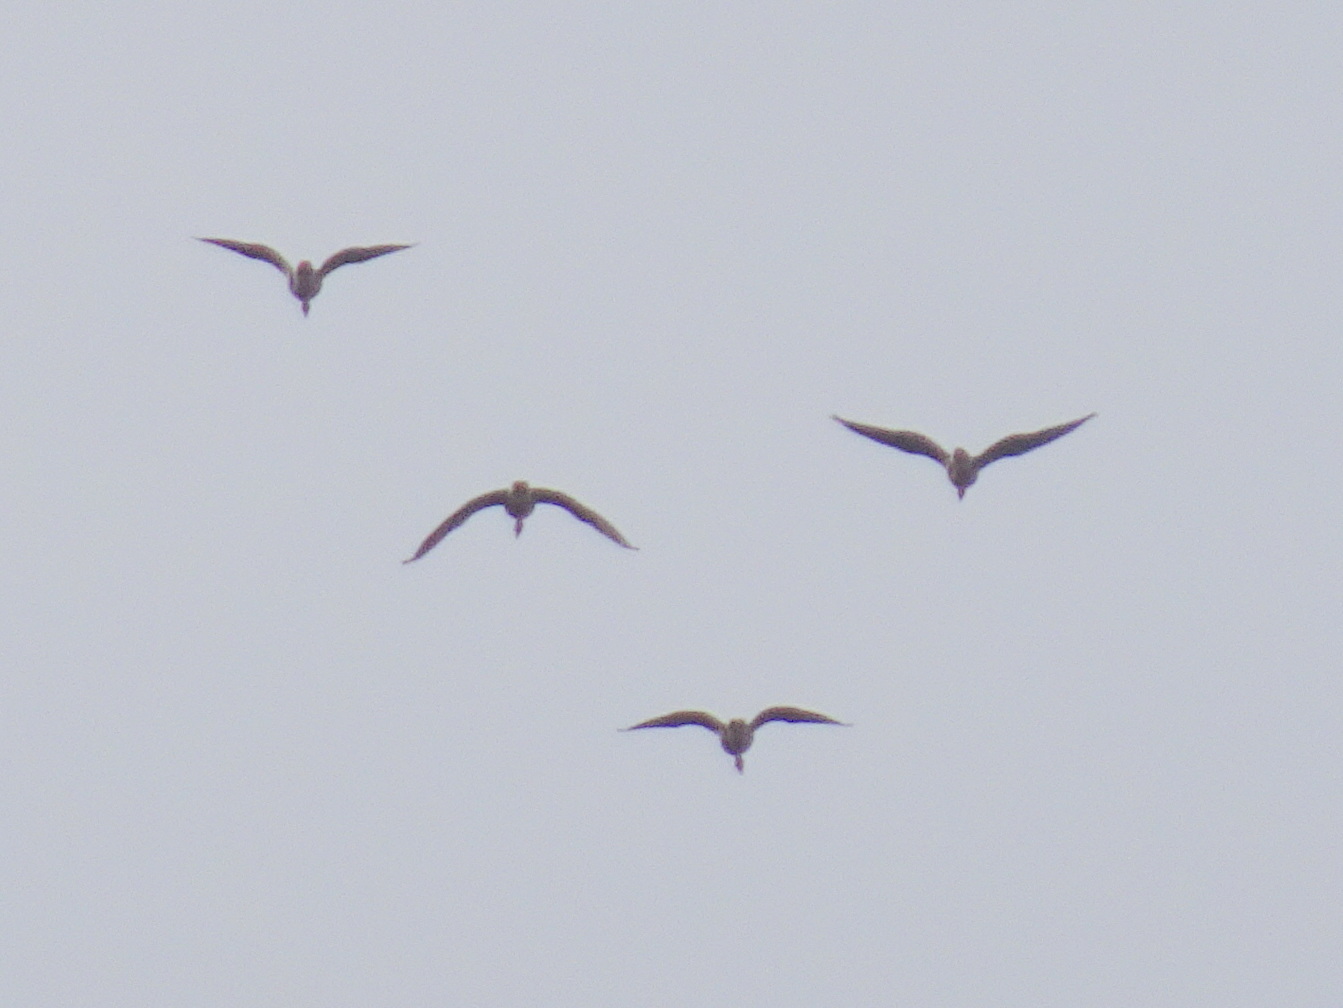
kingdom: Animalia
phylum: Chordata
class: Aves
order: Anseriformes
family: Anatidae
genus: Anser
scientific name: Anser albifrons
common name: Greater white-fronted goose
